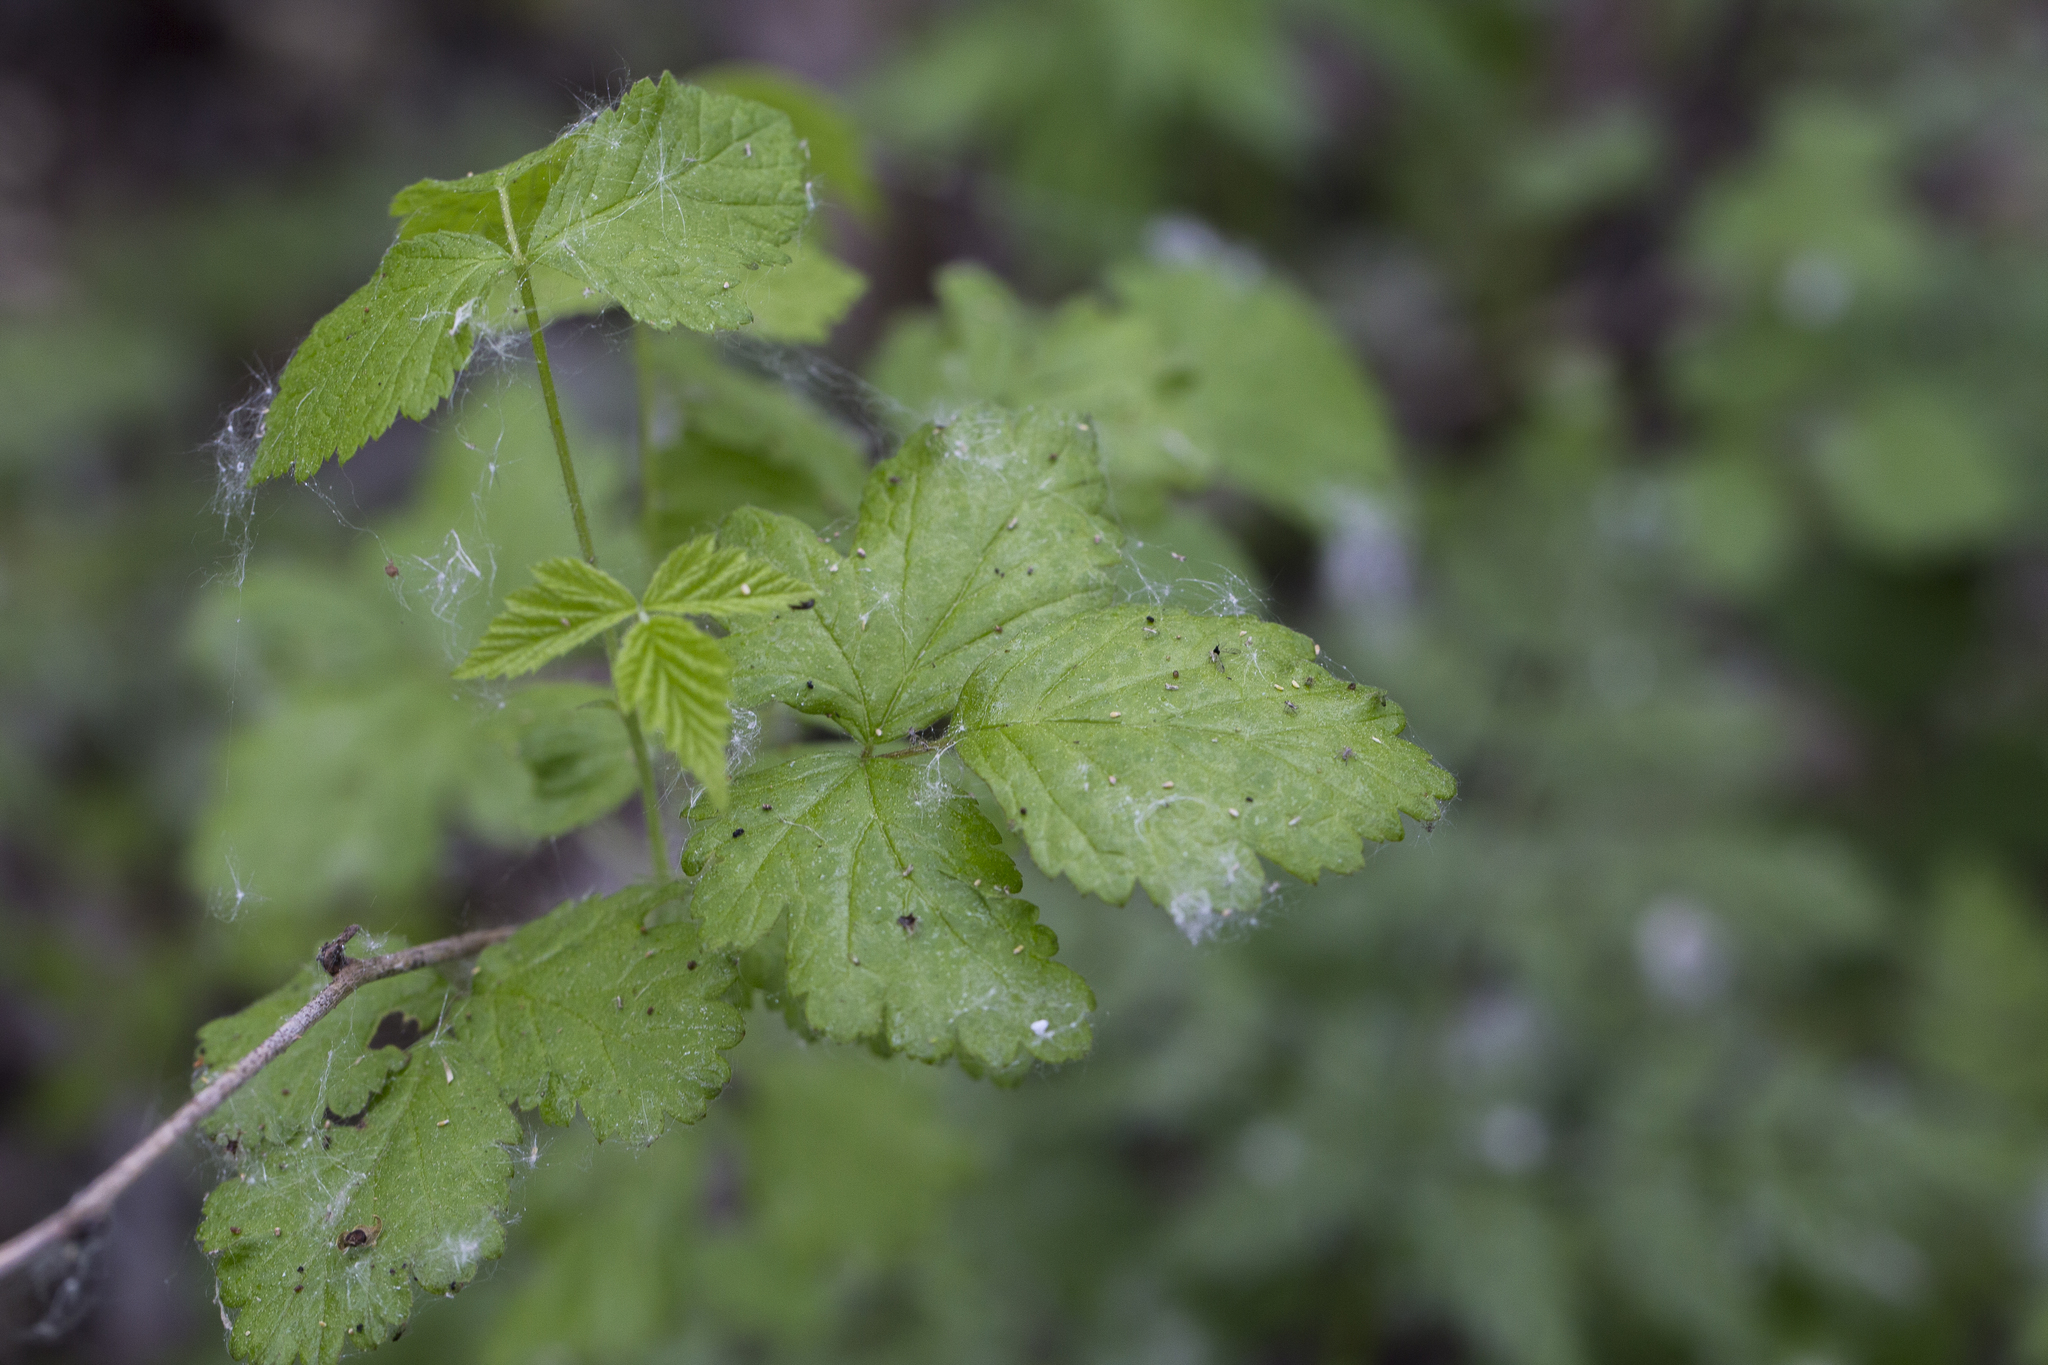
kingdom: Plantae
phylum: Tracheophyta
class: Magnoliopsida
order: Rosales
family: Rosaceae
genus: Rubus
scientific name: Rubus idaeus
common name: Raspberry
